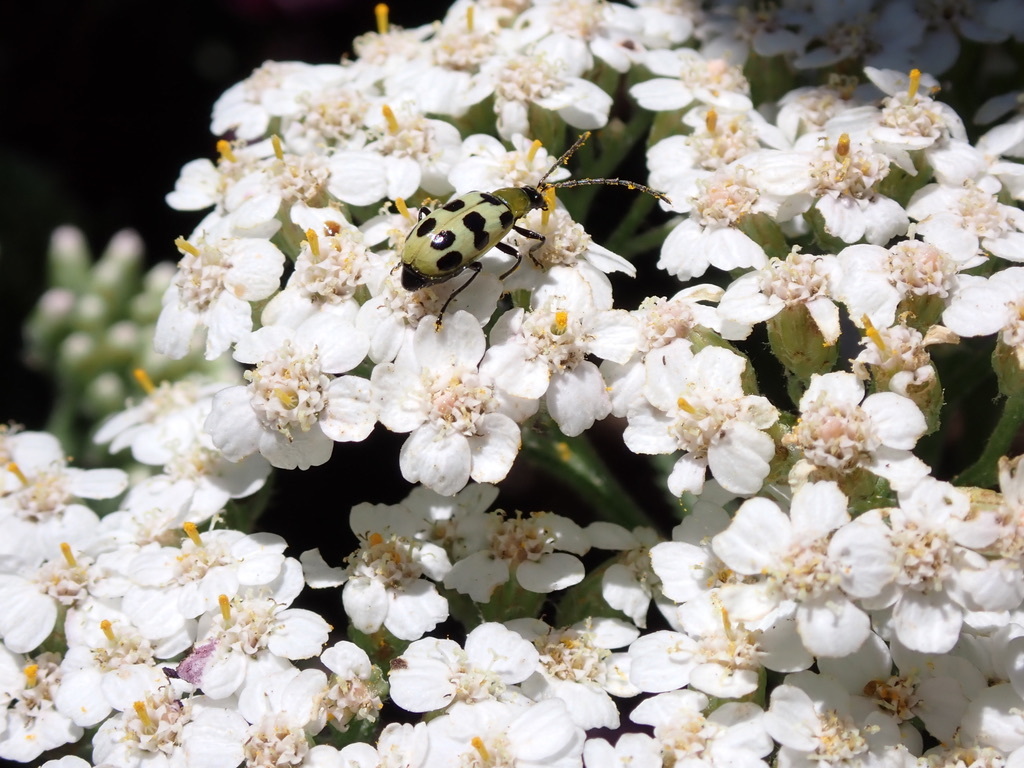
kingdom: Animalia
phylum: Arthropoda
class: Insecta
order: Coleoptera
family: Chrysomelidae
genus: Diabrotica
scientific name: Diabrotica undecimpunctata
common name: Spotted cucumber beetle
